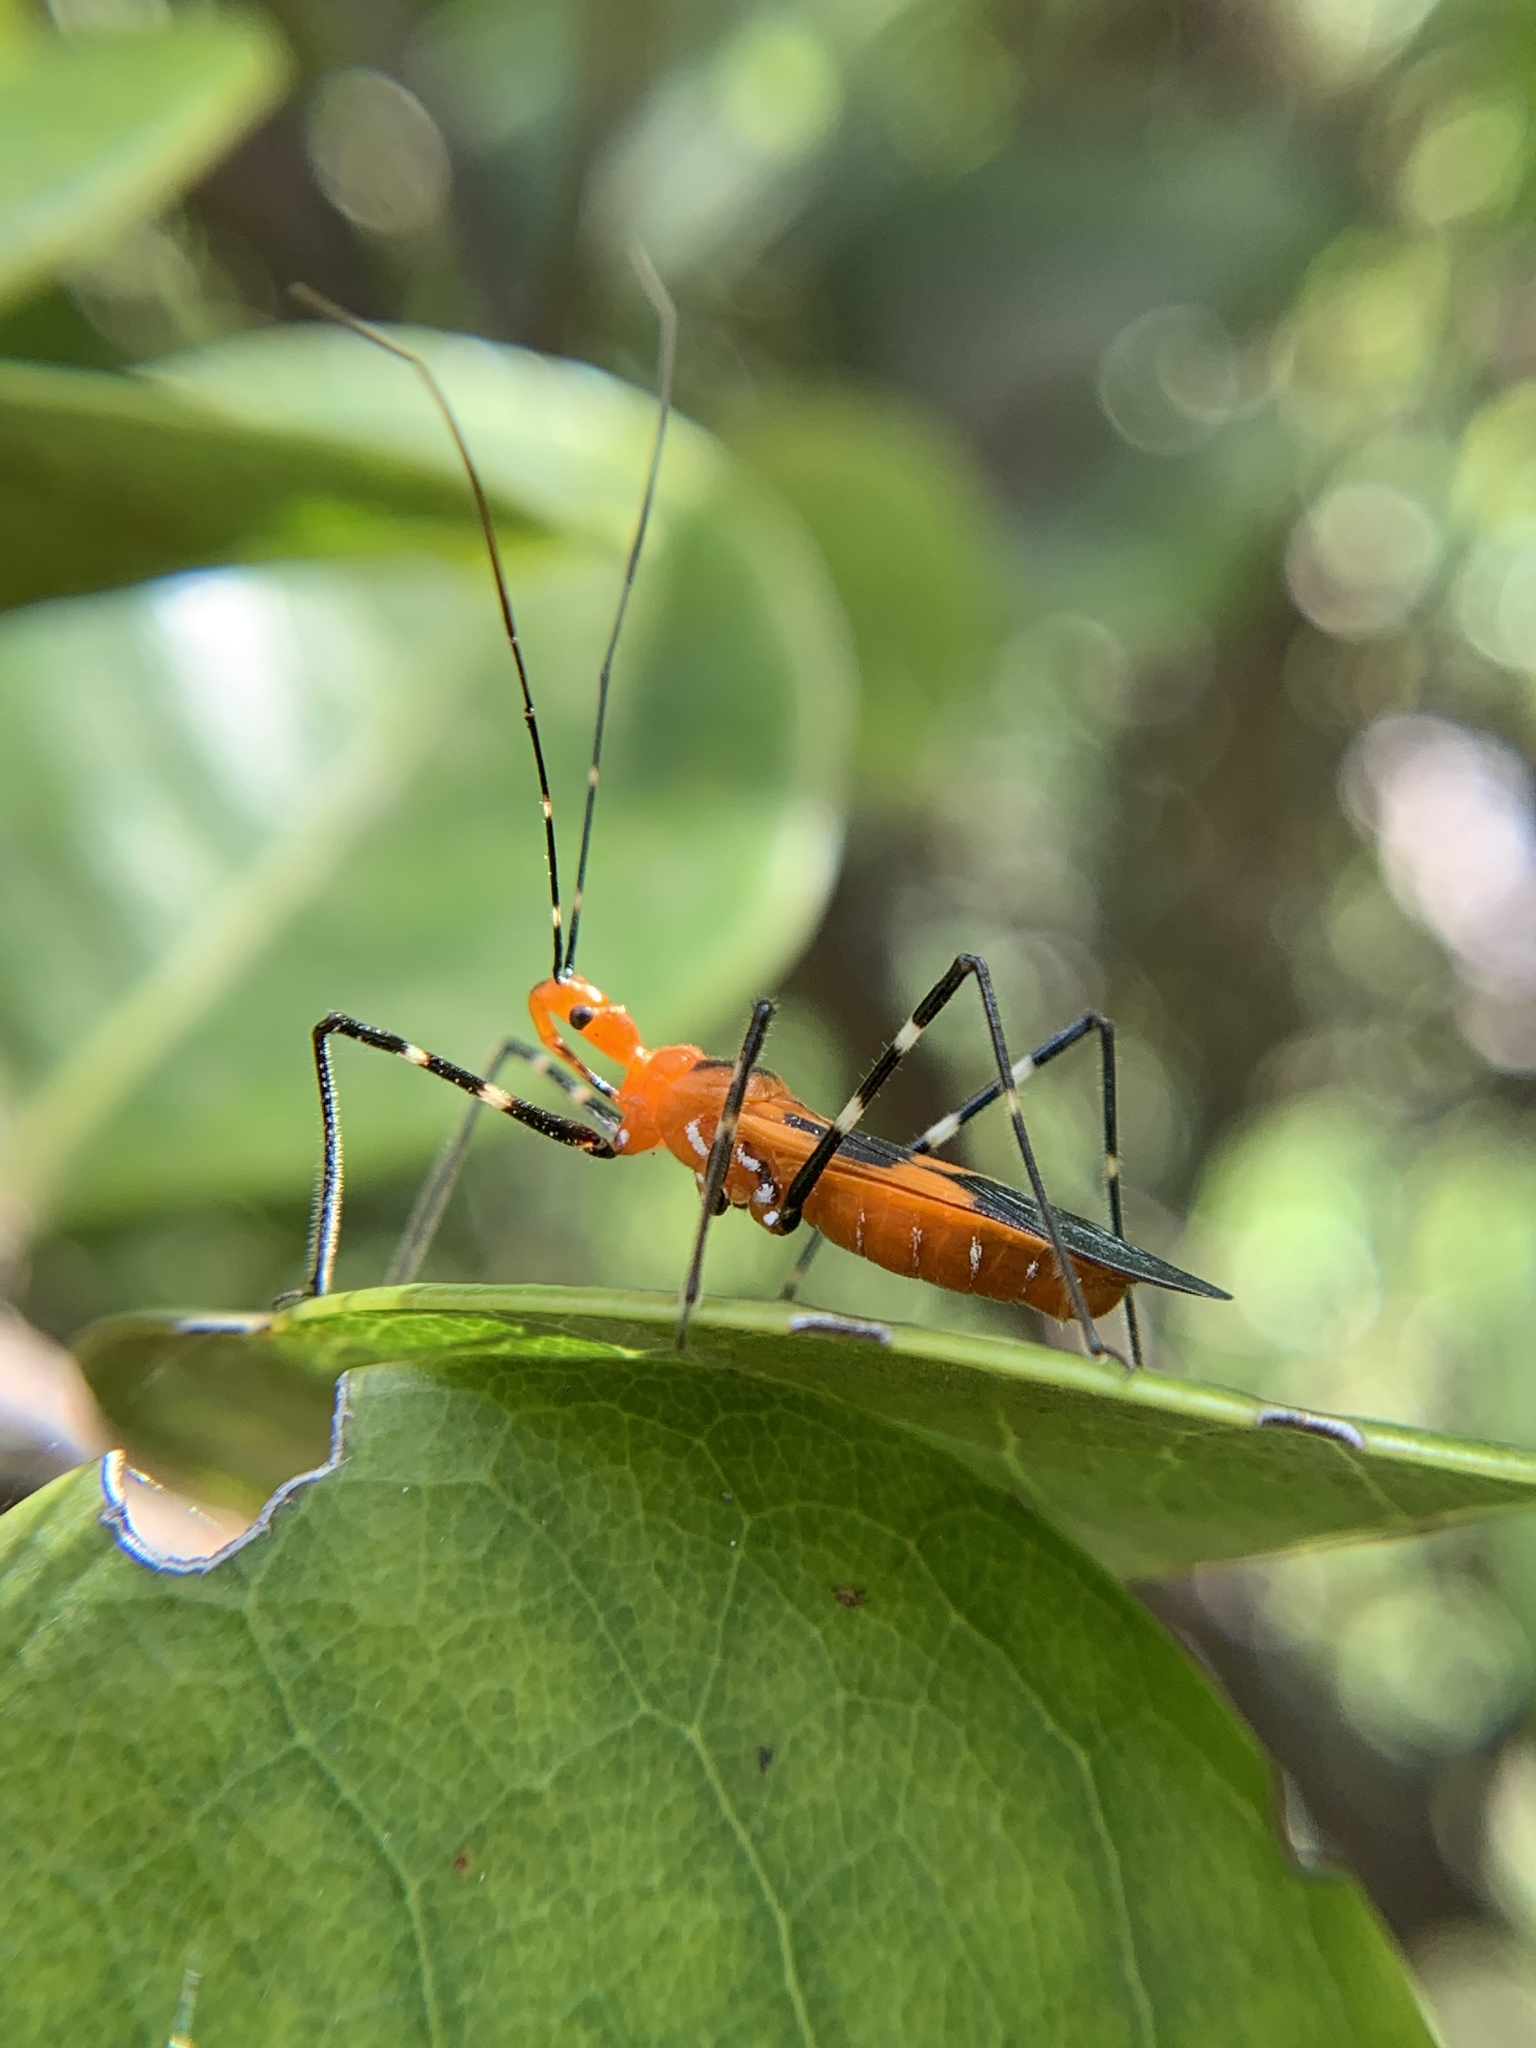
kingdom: Animalia
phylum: Arthropoda
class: Insecta
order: Hemiptera
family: Reduviidae
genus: Zelus
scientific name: Zelus longipes
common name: Milkweed assassin bug
